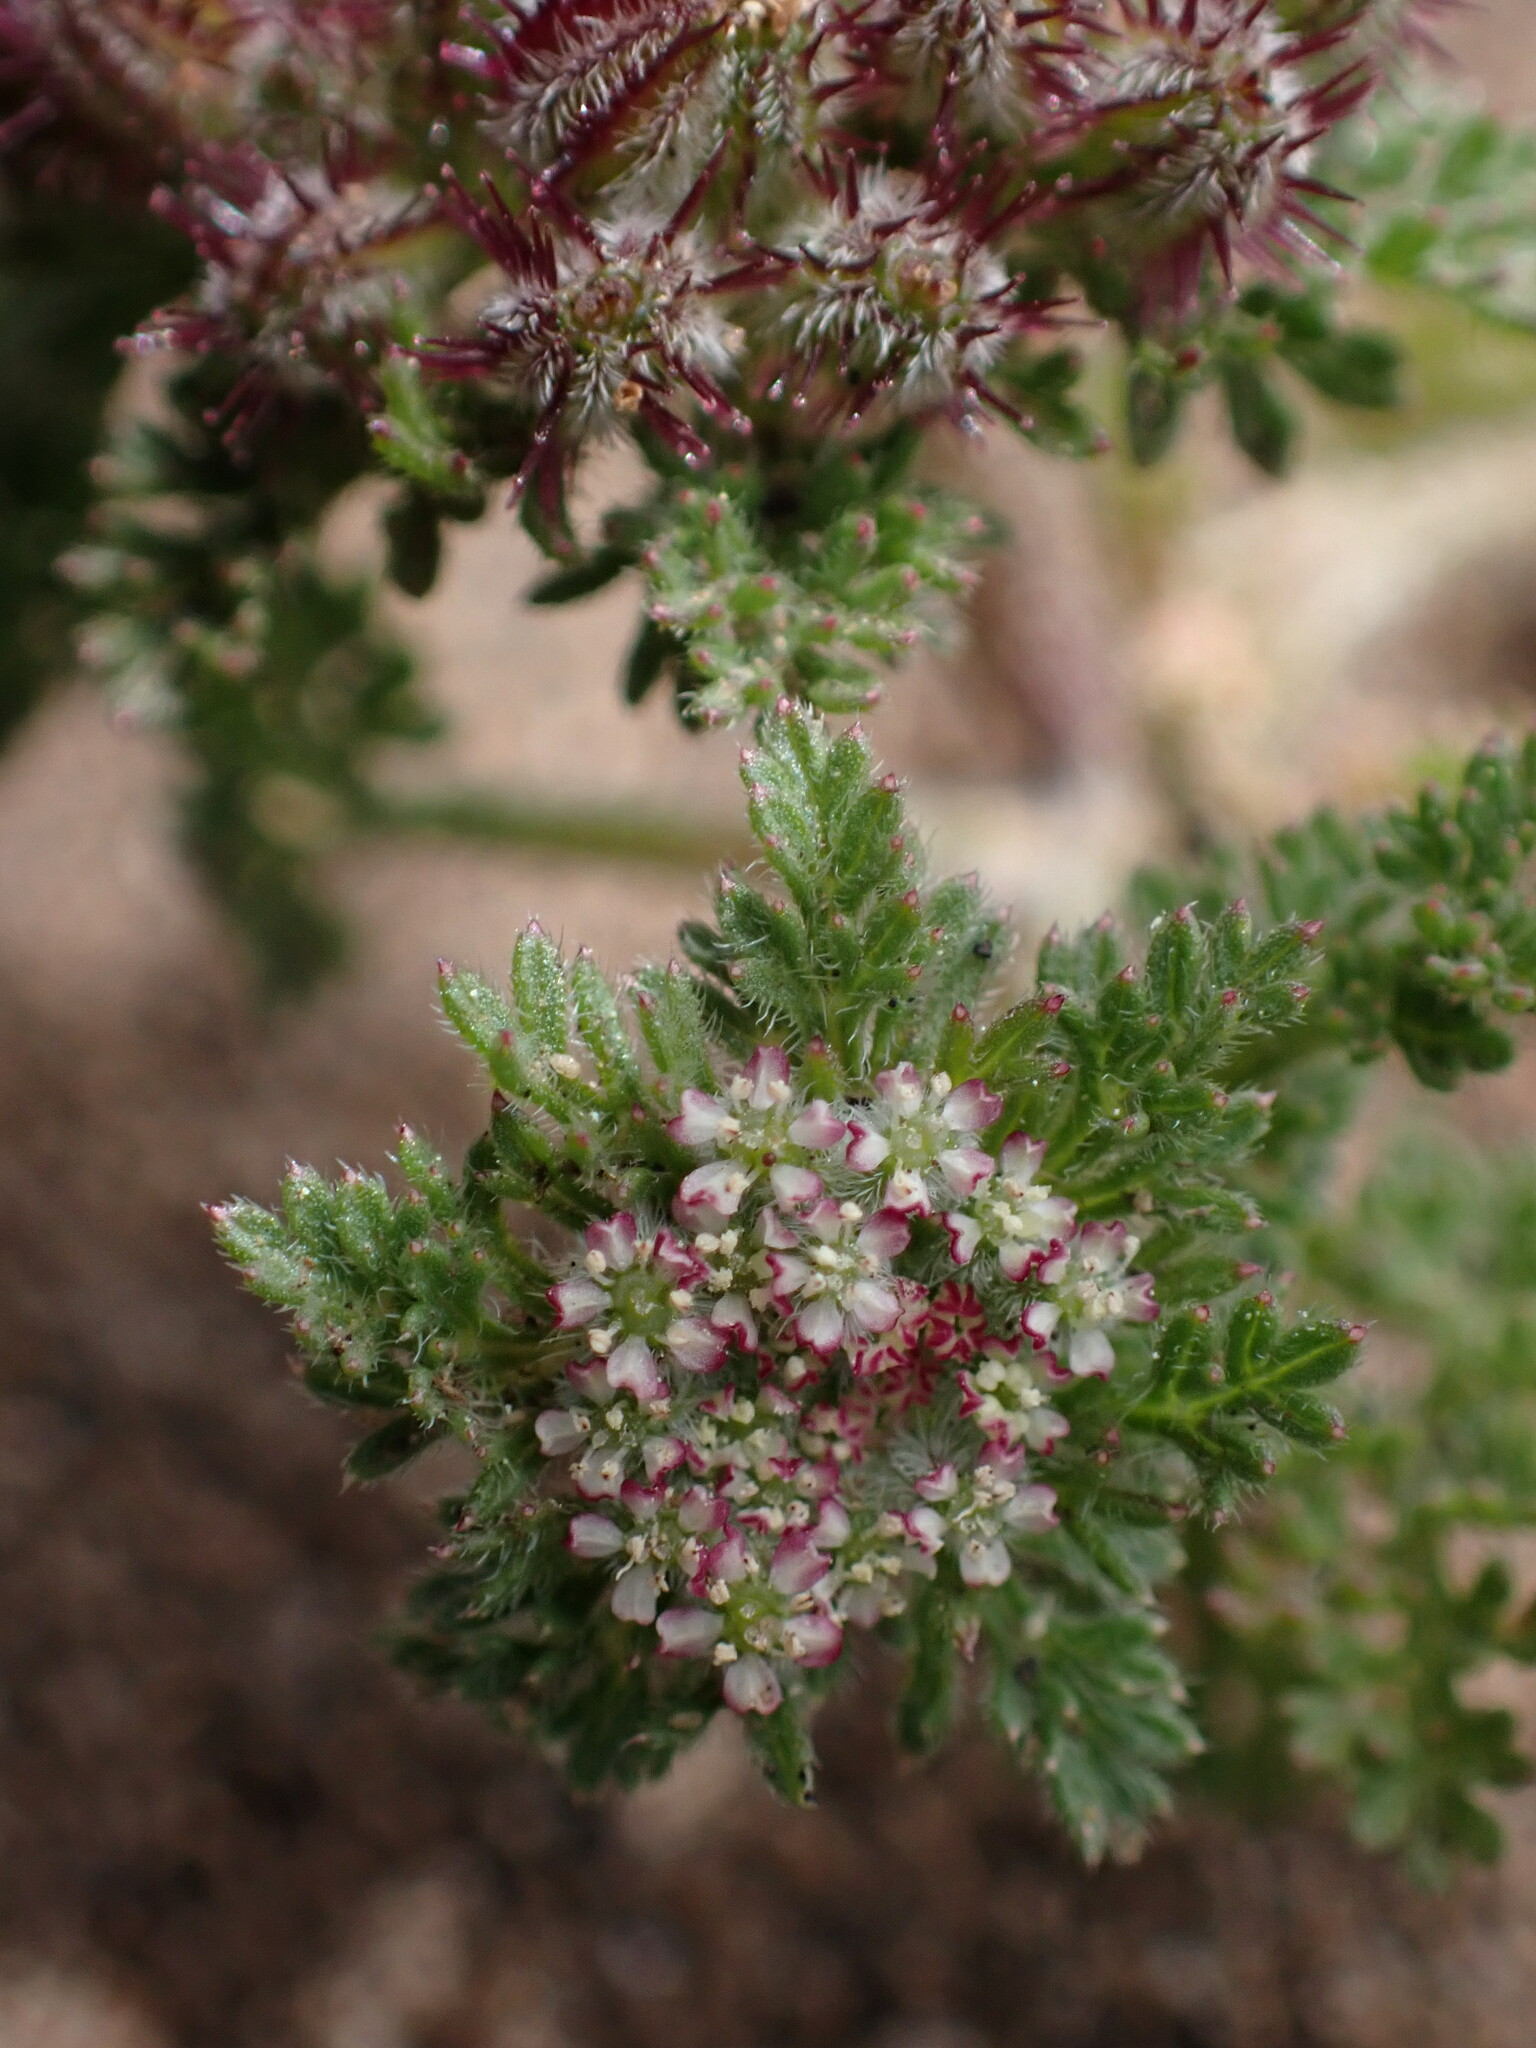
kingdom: Plantae
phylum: Tracheophyta
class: Magnoliopsida
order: Apiales
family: Apiaceae
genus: Daucus
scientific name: Daucus pusillus
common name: Southwest wild carrot
